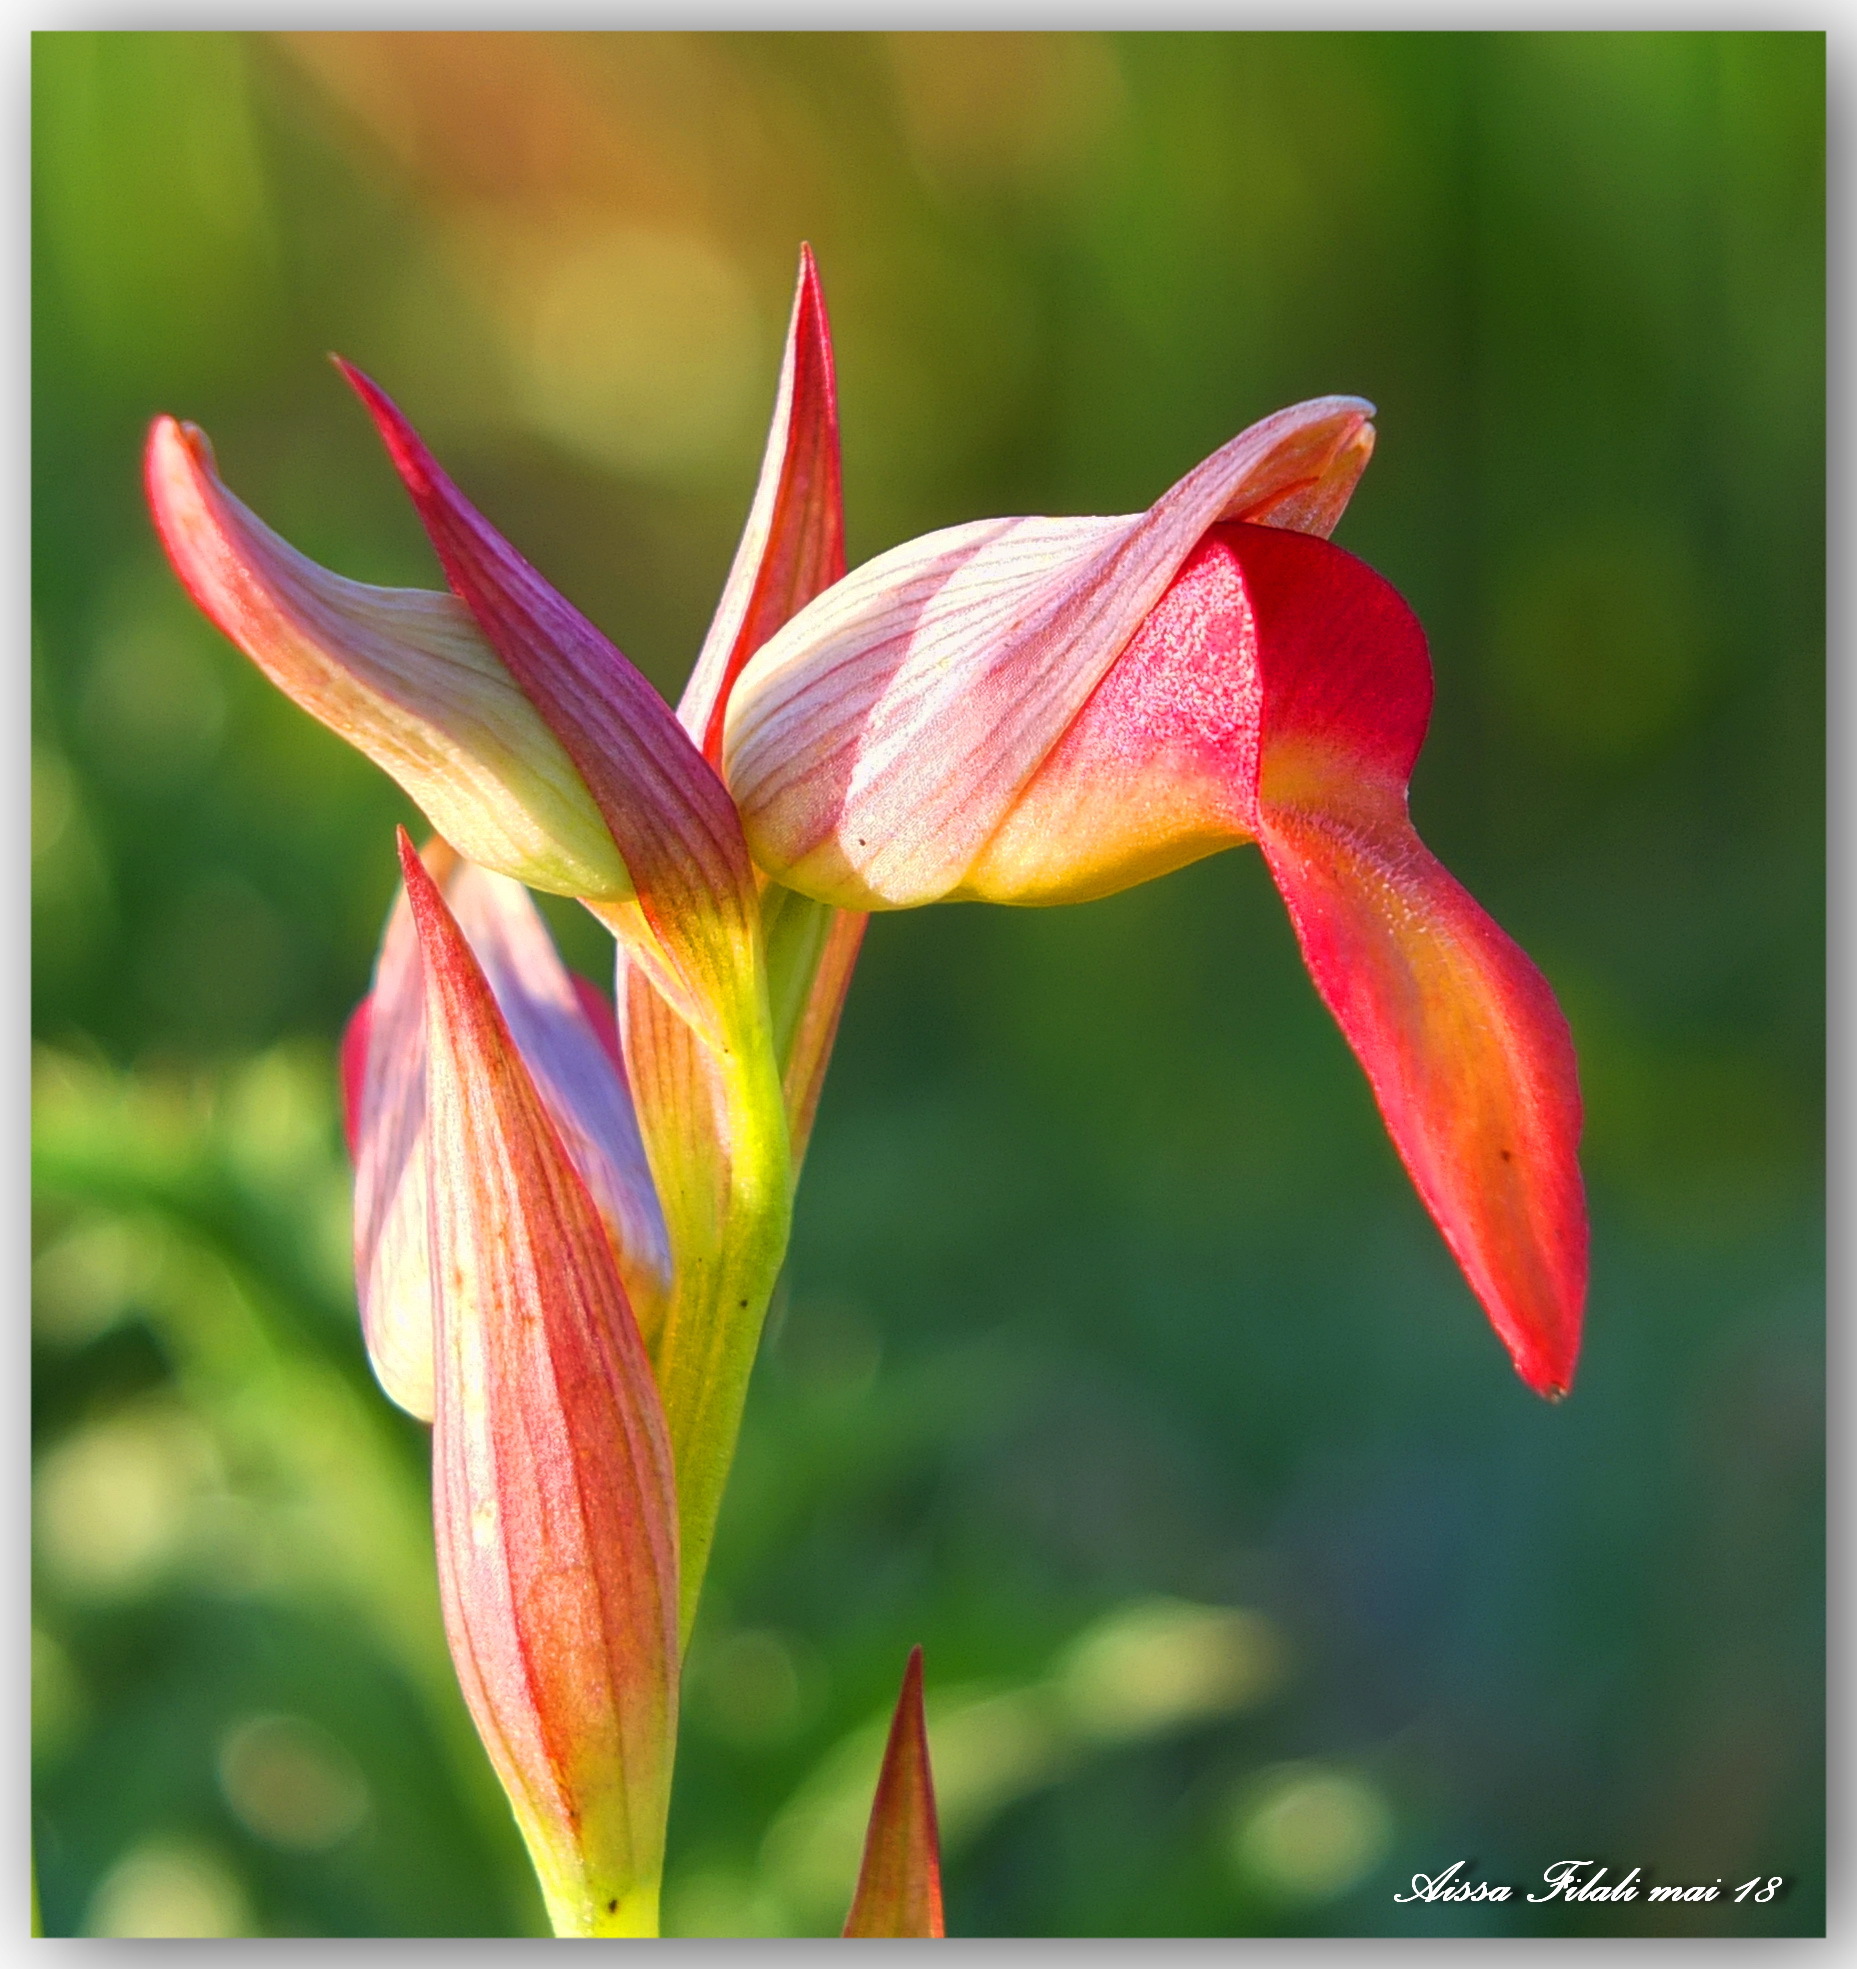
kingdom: Plantae
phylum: Tracheophyta
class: Liliopsida
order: Asparagales
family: Orchidaceae
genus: Serapias
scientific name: Serapias
